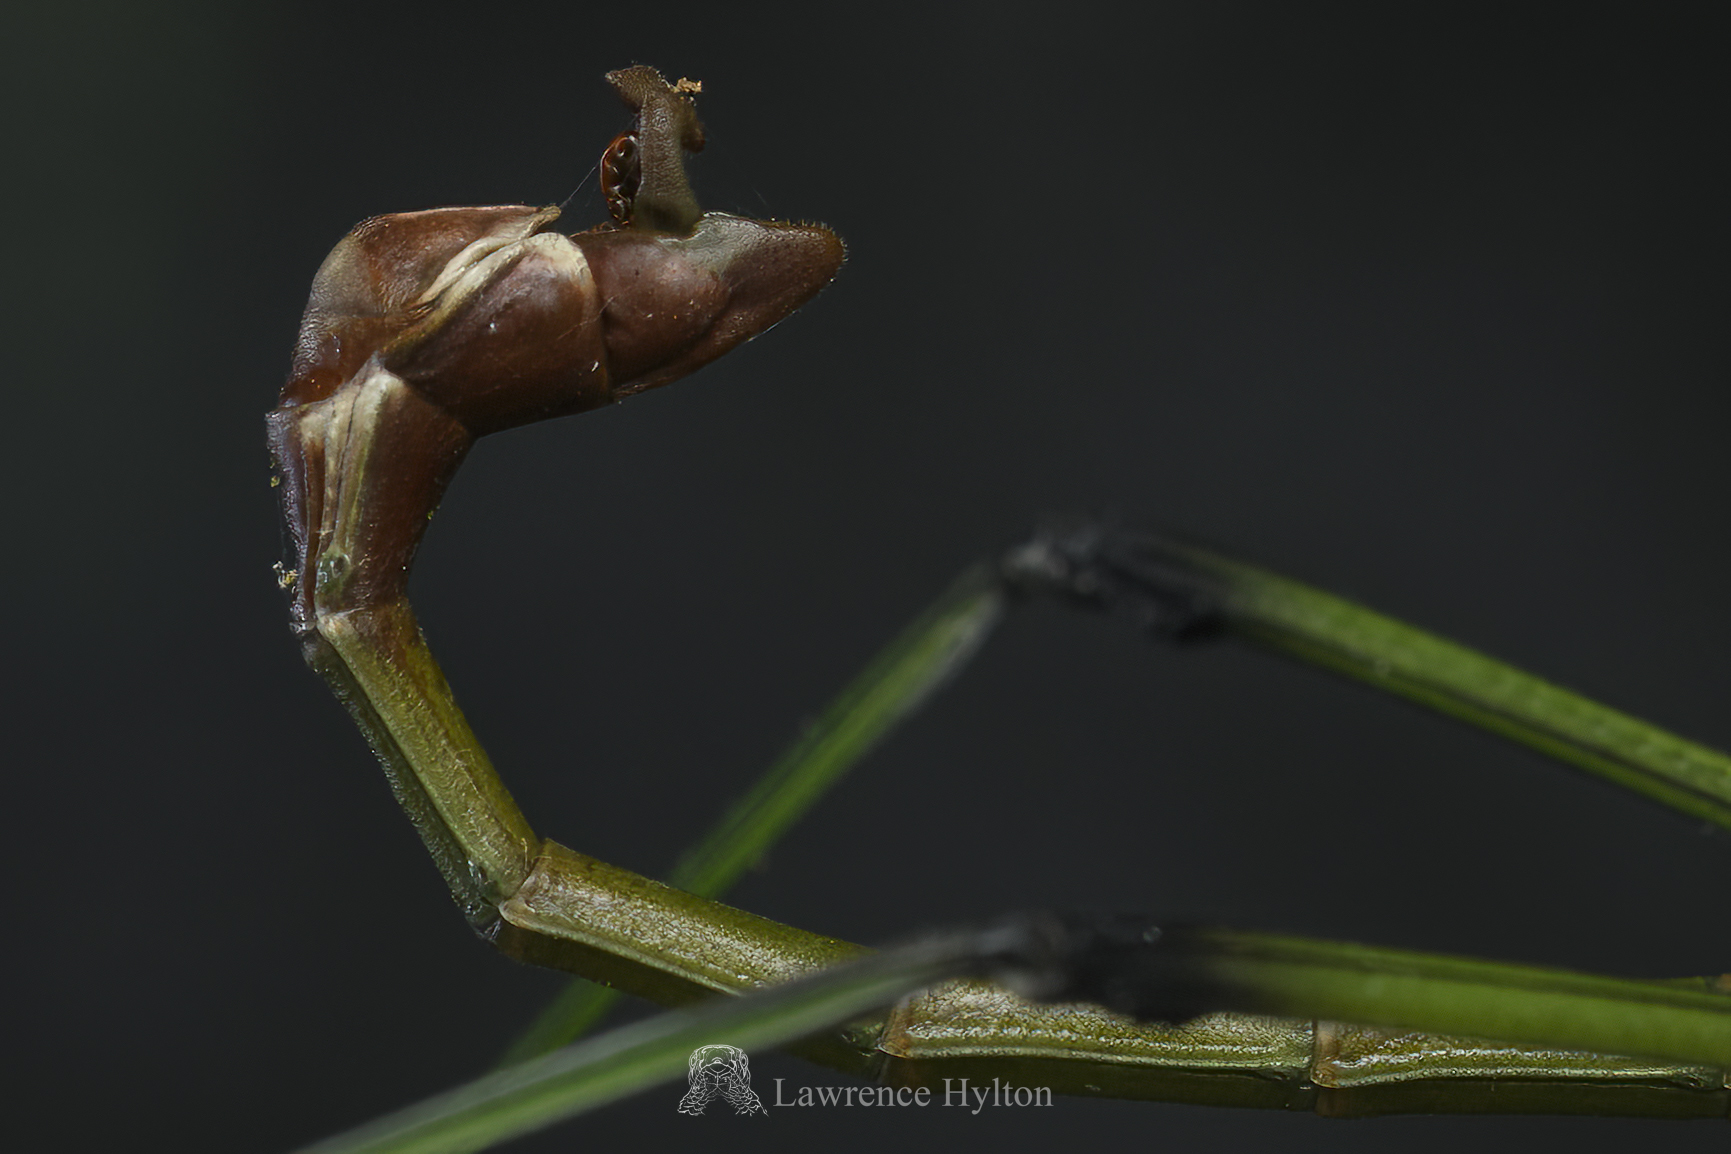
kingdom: Animalia
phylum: Arthropoda
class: Insecta
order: Phasmida
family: Lonchodidae
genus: Phraortes
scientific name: Phraortes stomphax
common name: Hong kong stick insect
